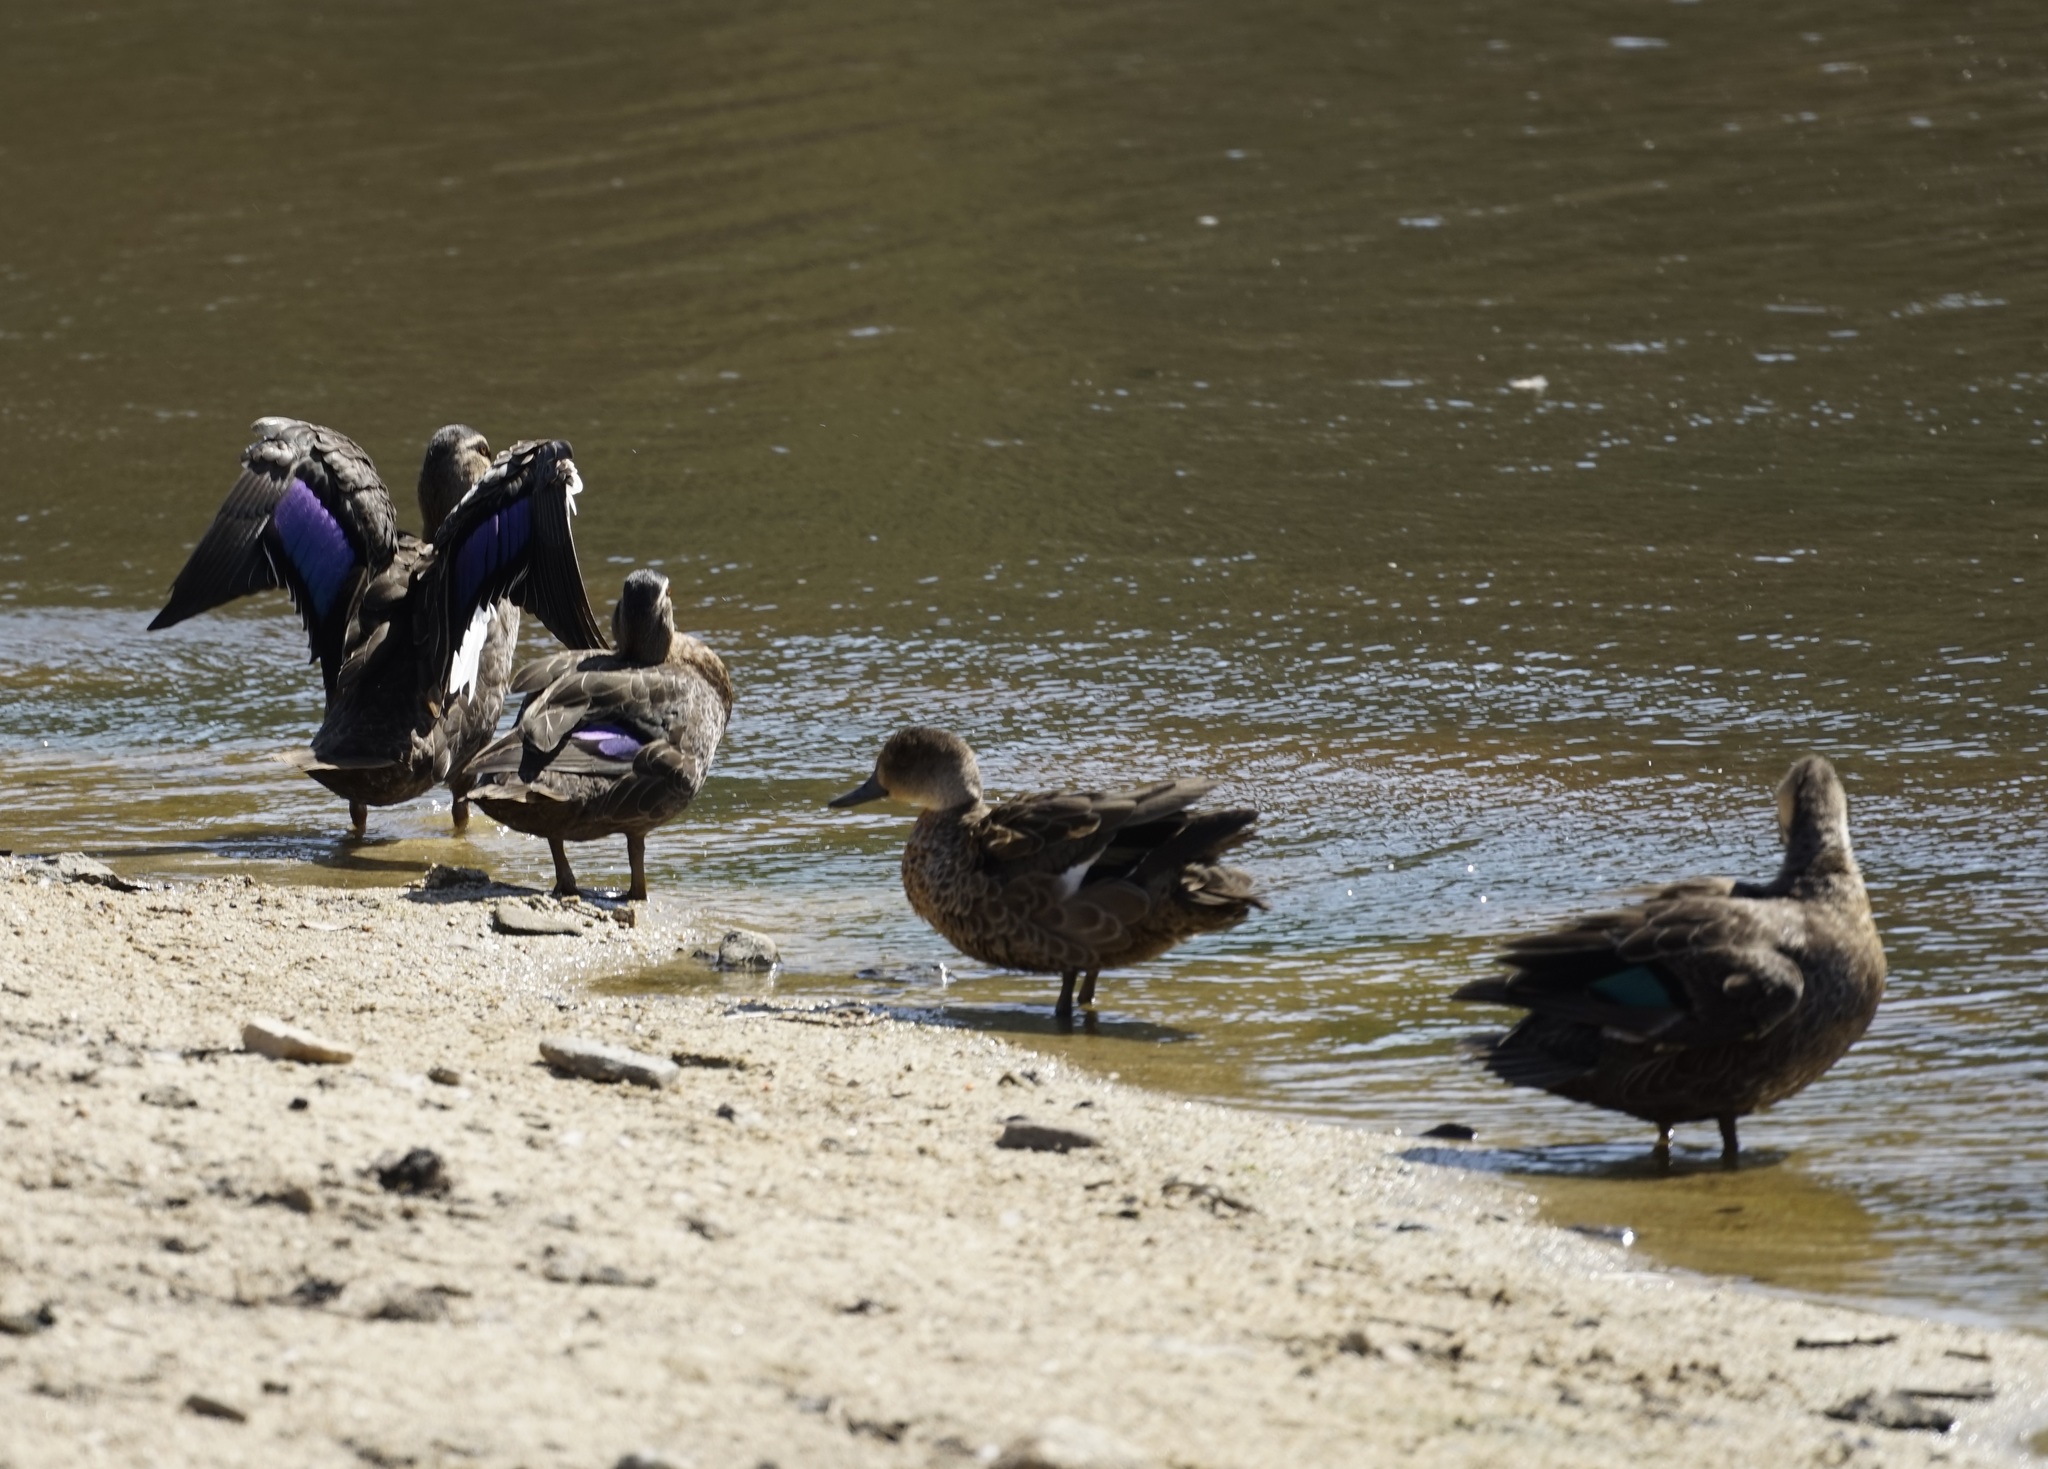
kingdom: Animalia
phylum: Chordata
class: Aves
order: Anseriformes
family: Anatidae
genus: Anas
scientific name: Anas superciliosa
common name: Pacific black duck
